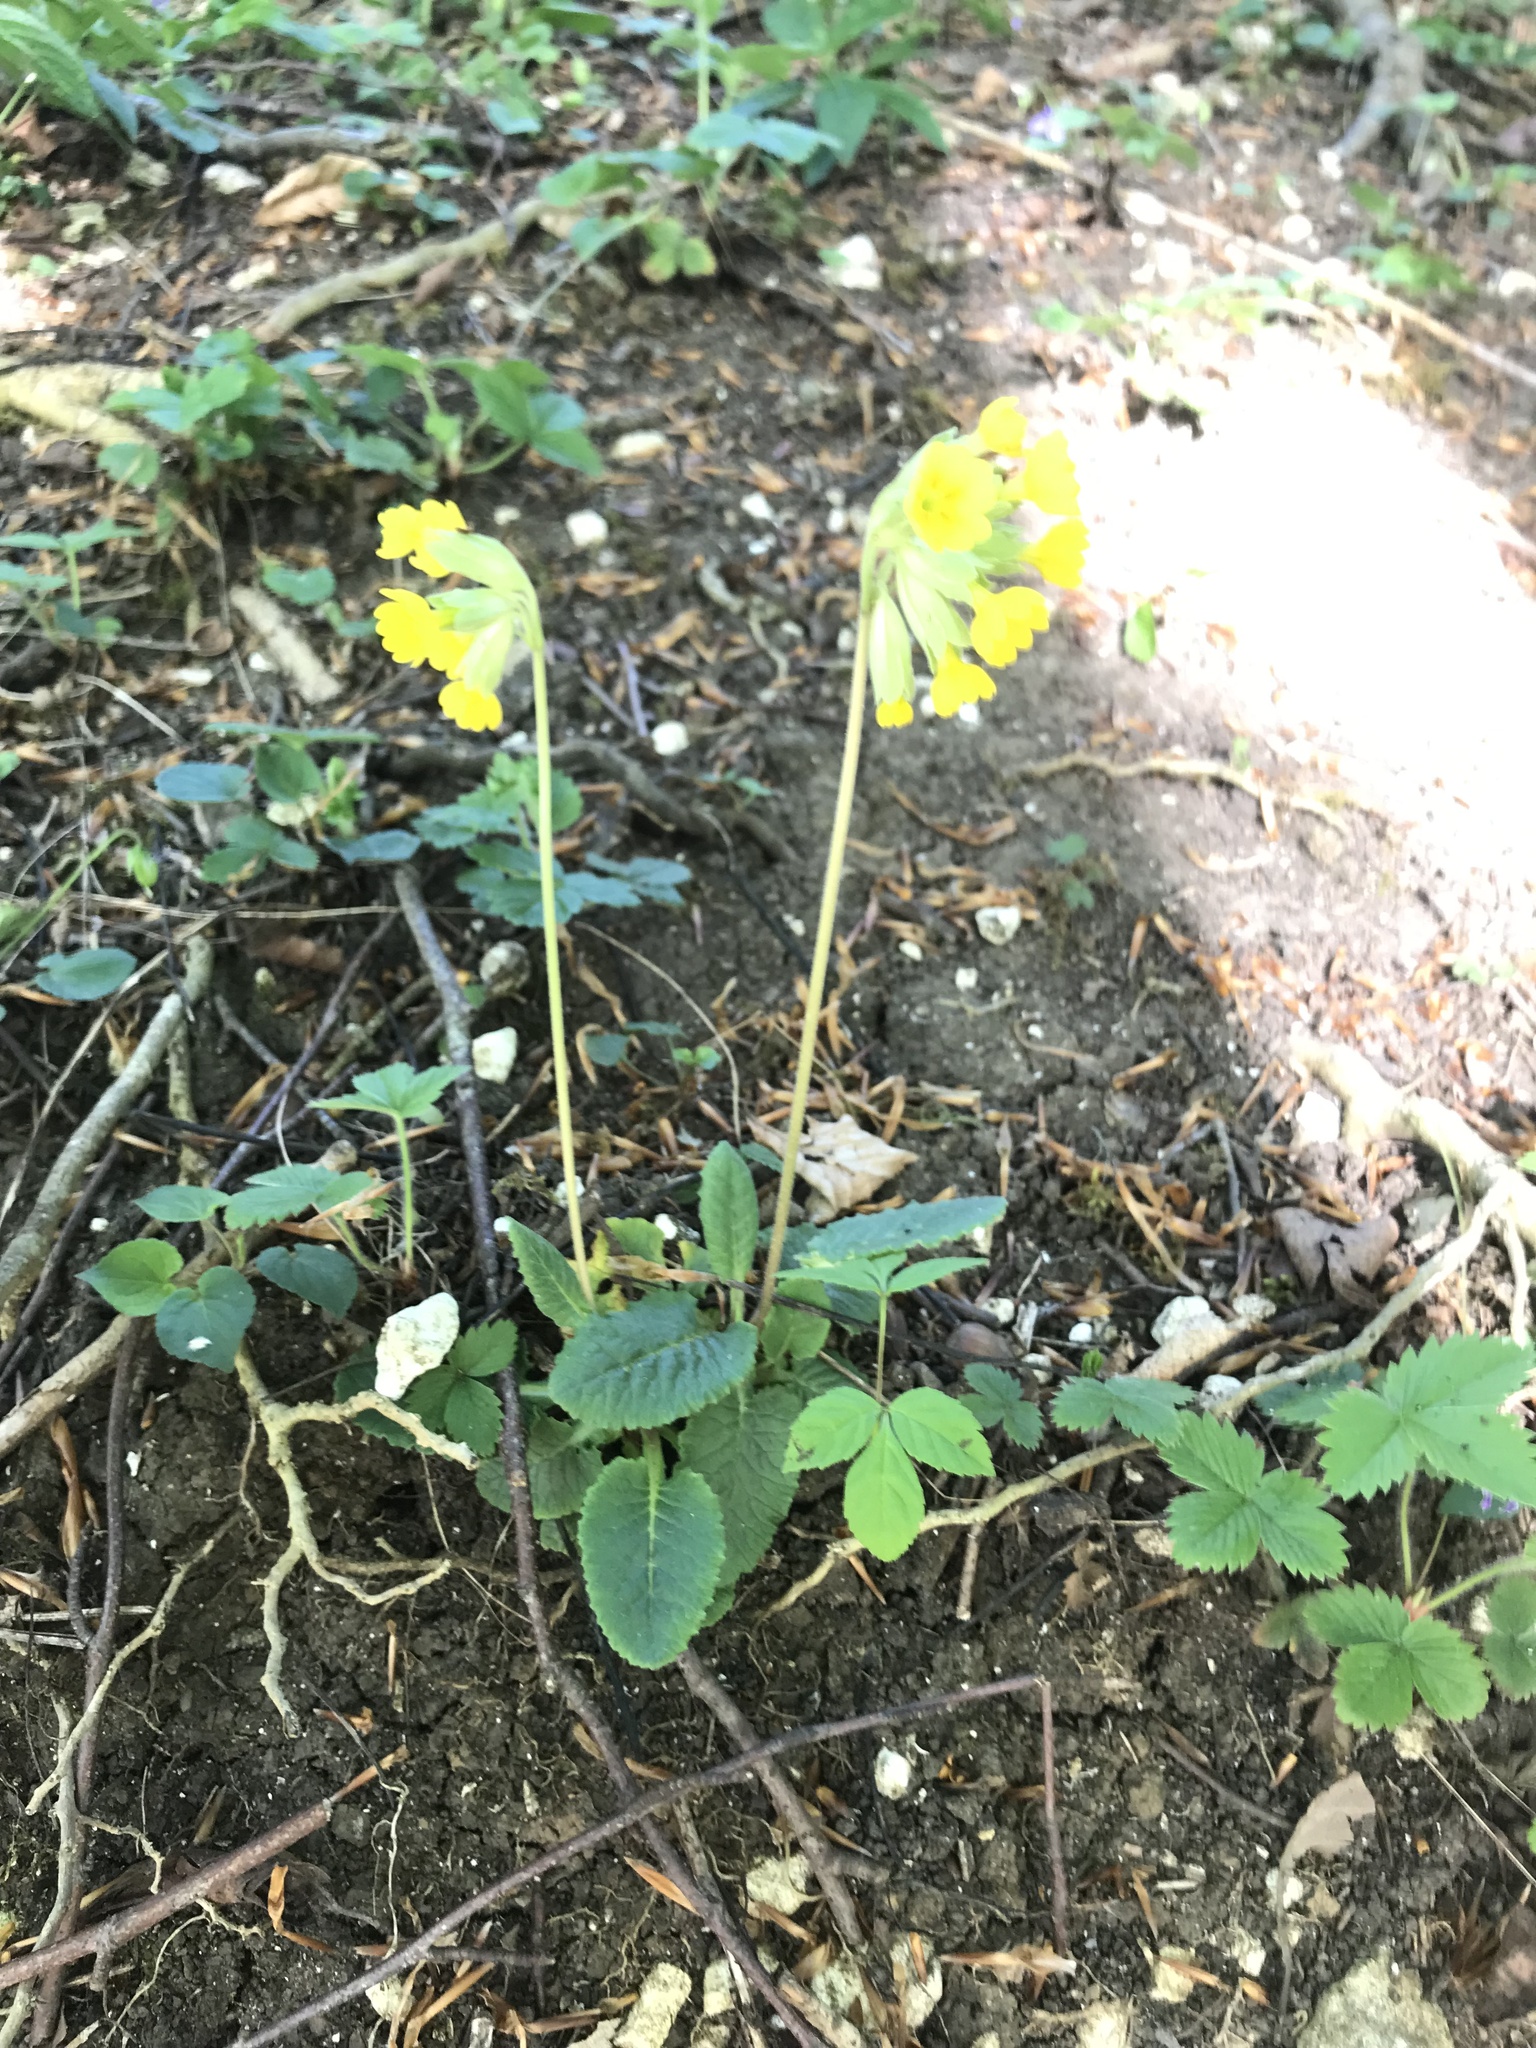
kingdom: Plantae
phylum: Tracheophyta
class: Magnoliopsida
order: Ericales
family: Primulaceae
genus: Primula
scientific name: Primula veris
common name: Cowslip
